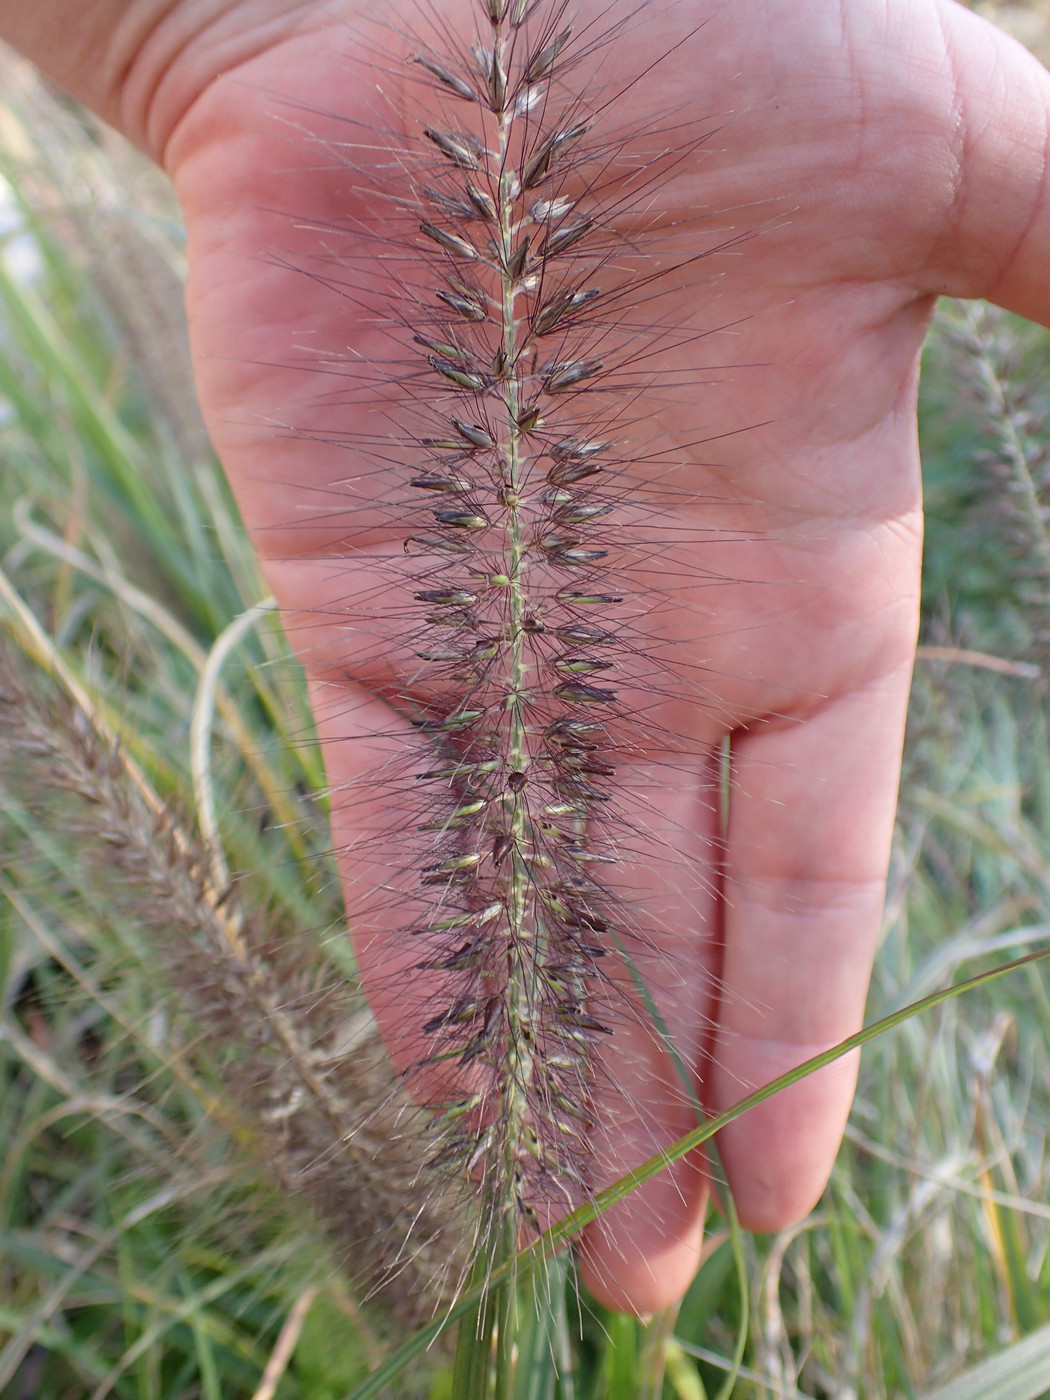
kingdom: Plantae
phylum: Tracheophyta
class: Liliopsida
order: Poales
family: Poaceae
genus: Cenchrus
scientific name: Cenchrus alopecuroides
